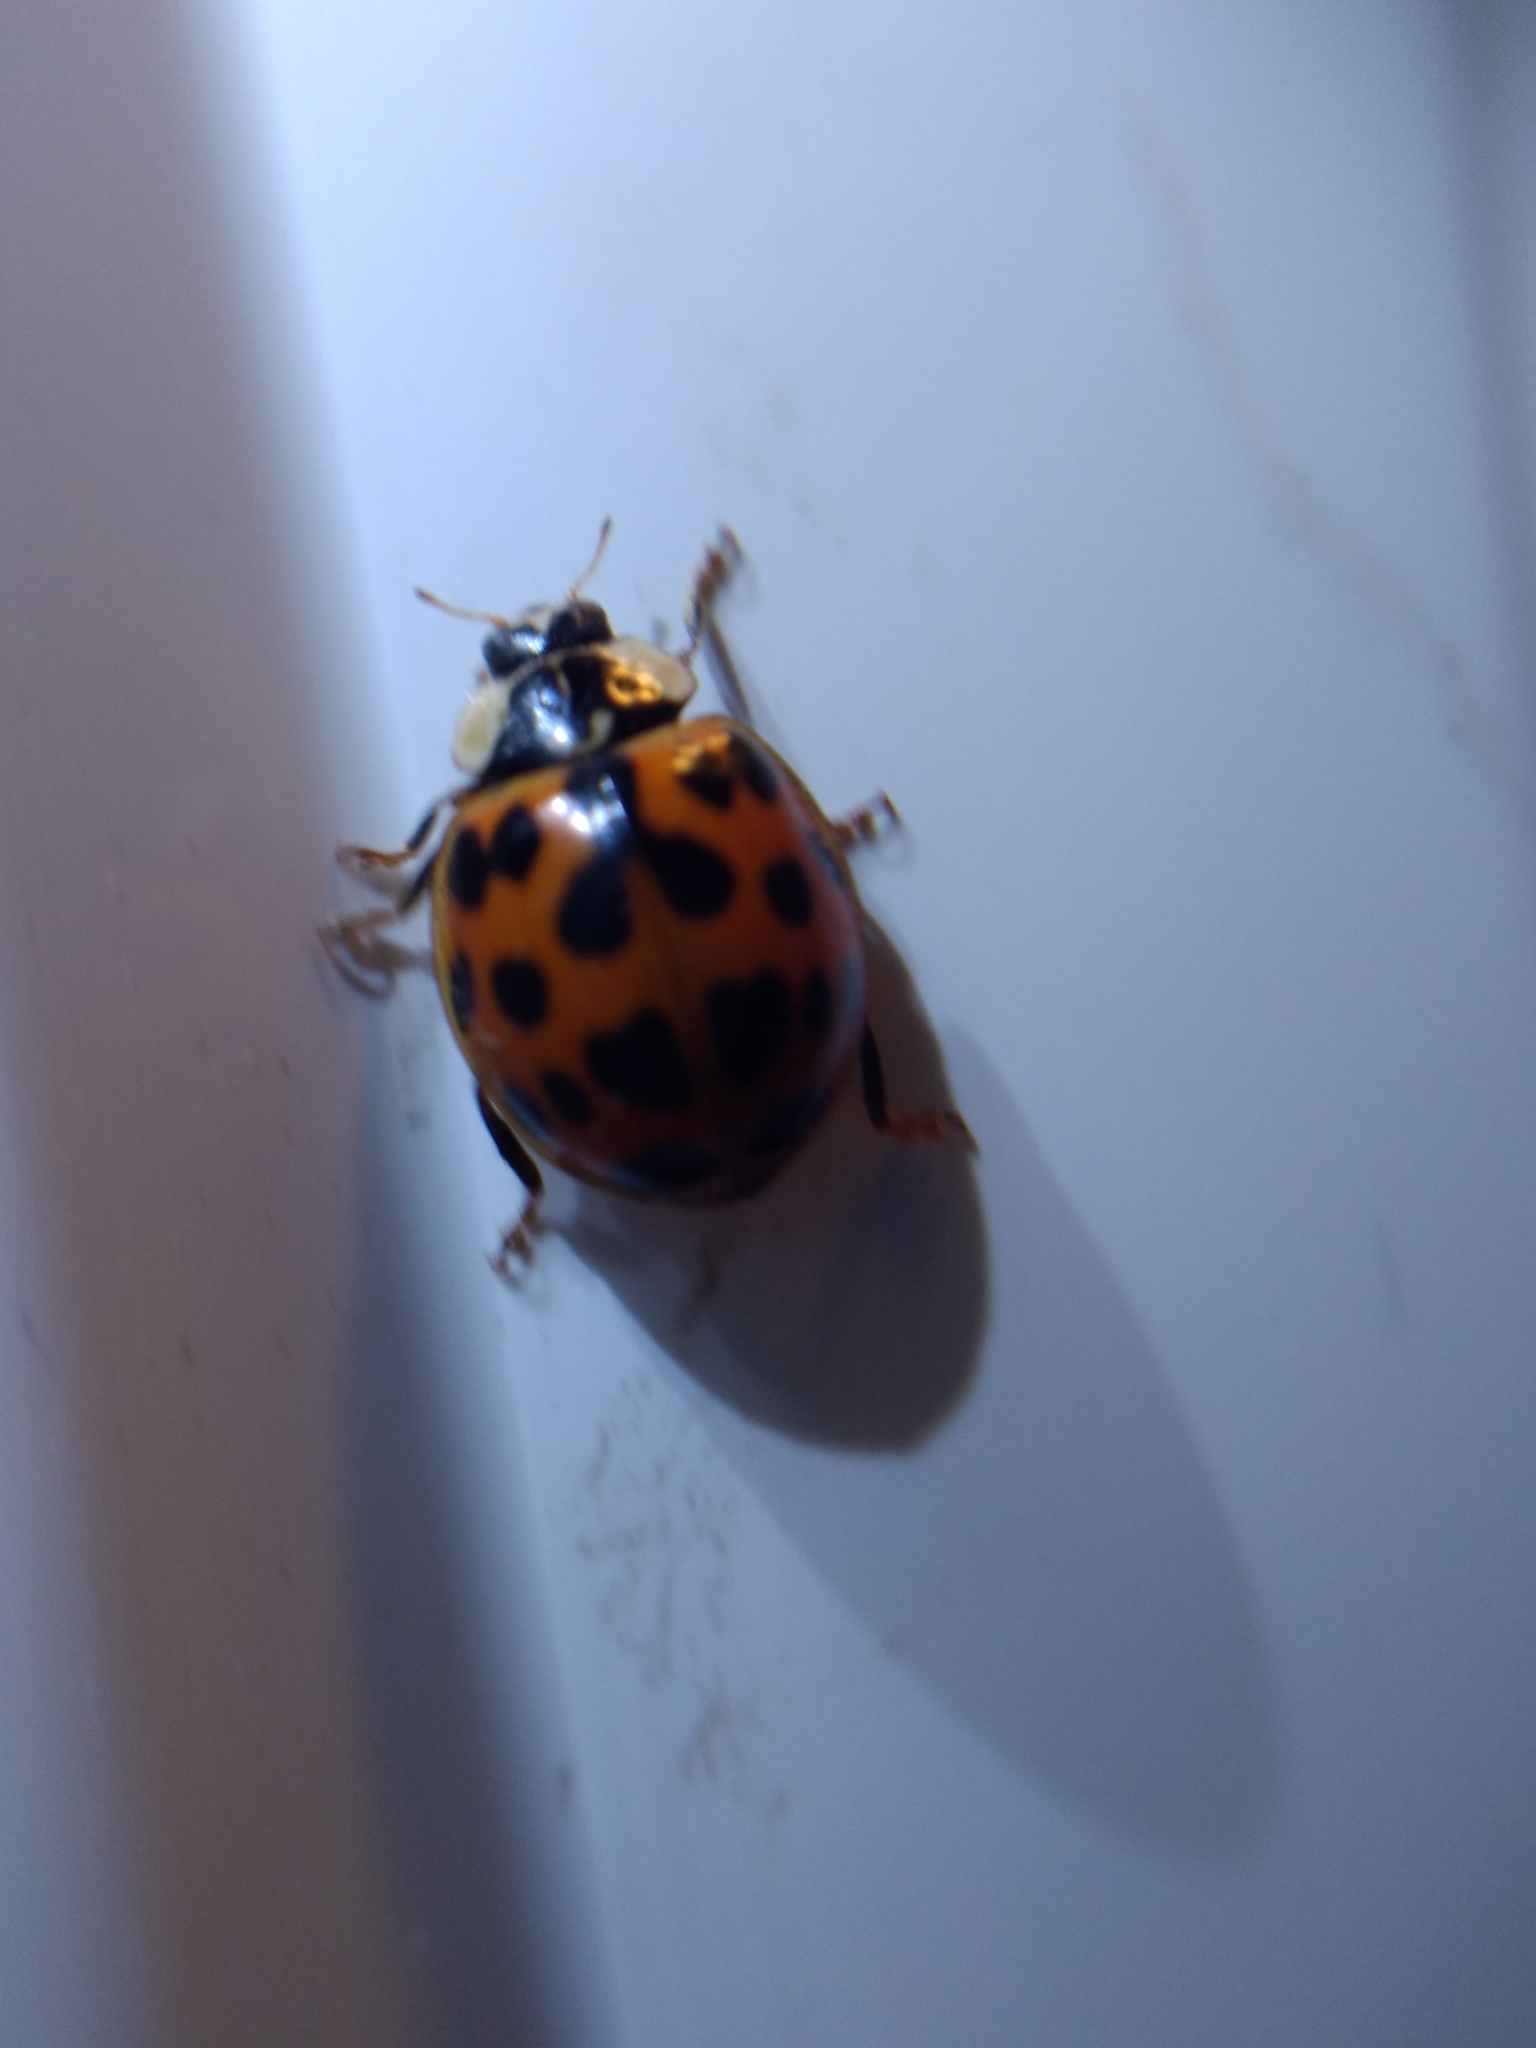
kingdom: Animalia
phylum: Arthropoda
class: Insecta
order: Coleoptera
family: Coccinellidae
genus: Harmonia
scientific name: Harmonia axyridis
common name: Harlequin ladybird
